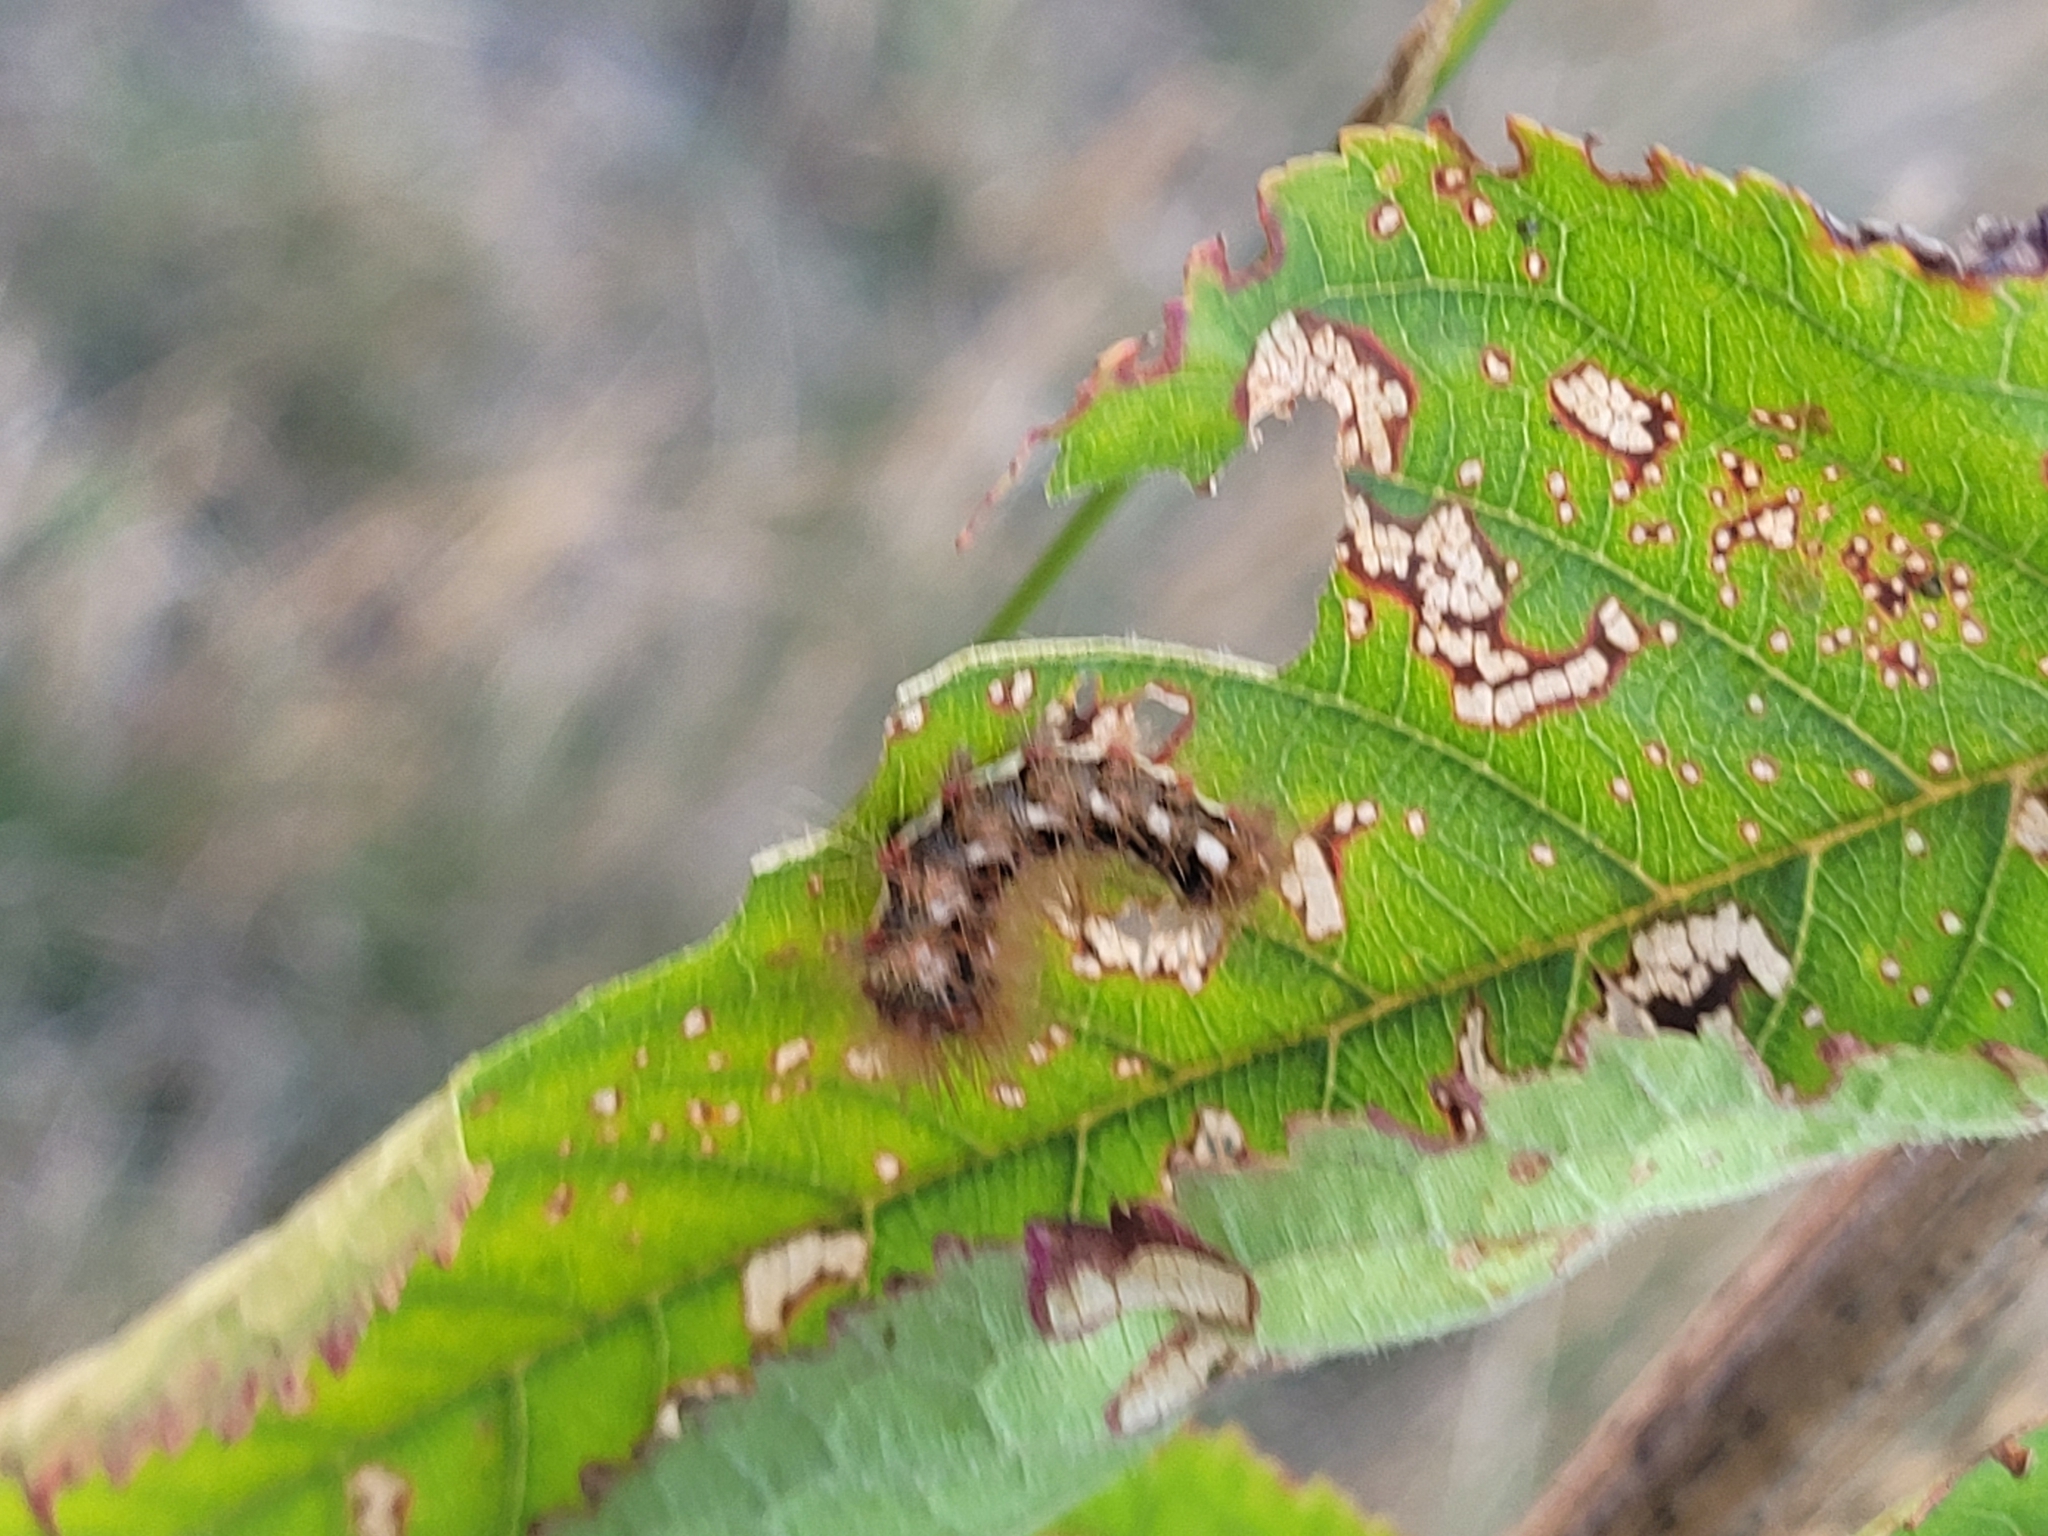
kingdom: Animalia
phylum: Arthropoda
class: Insecta
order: Lepidoptera
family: Noctuidae
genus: Acronicta
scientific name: Acronicta rumicis
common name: Knot grass
